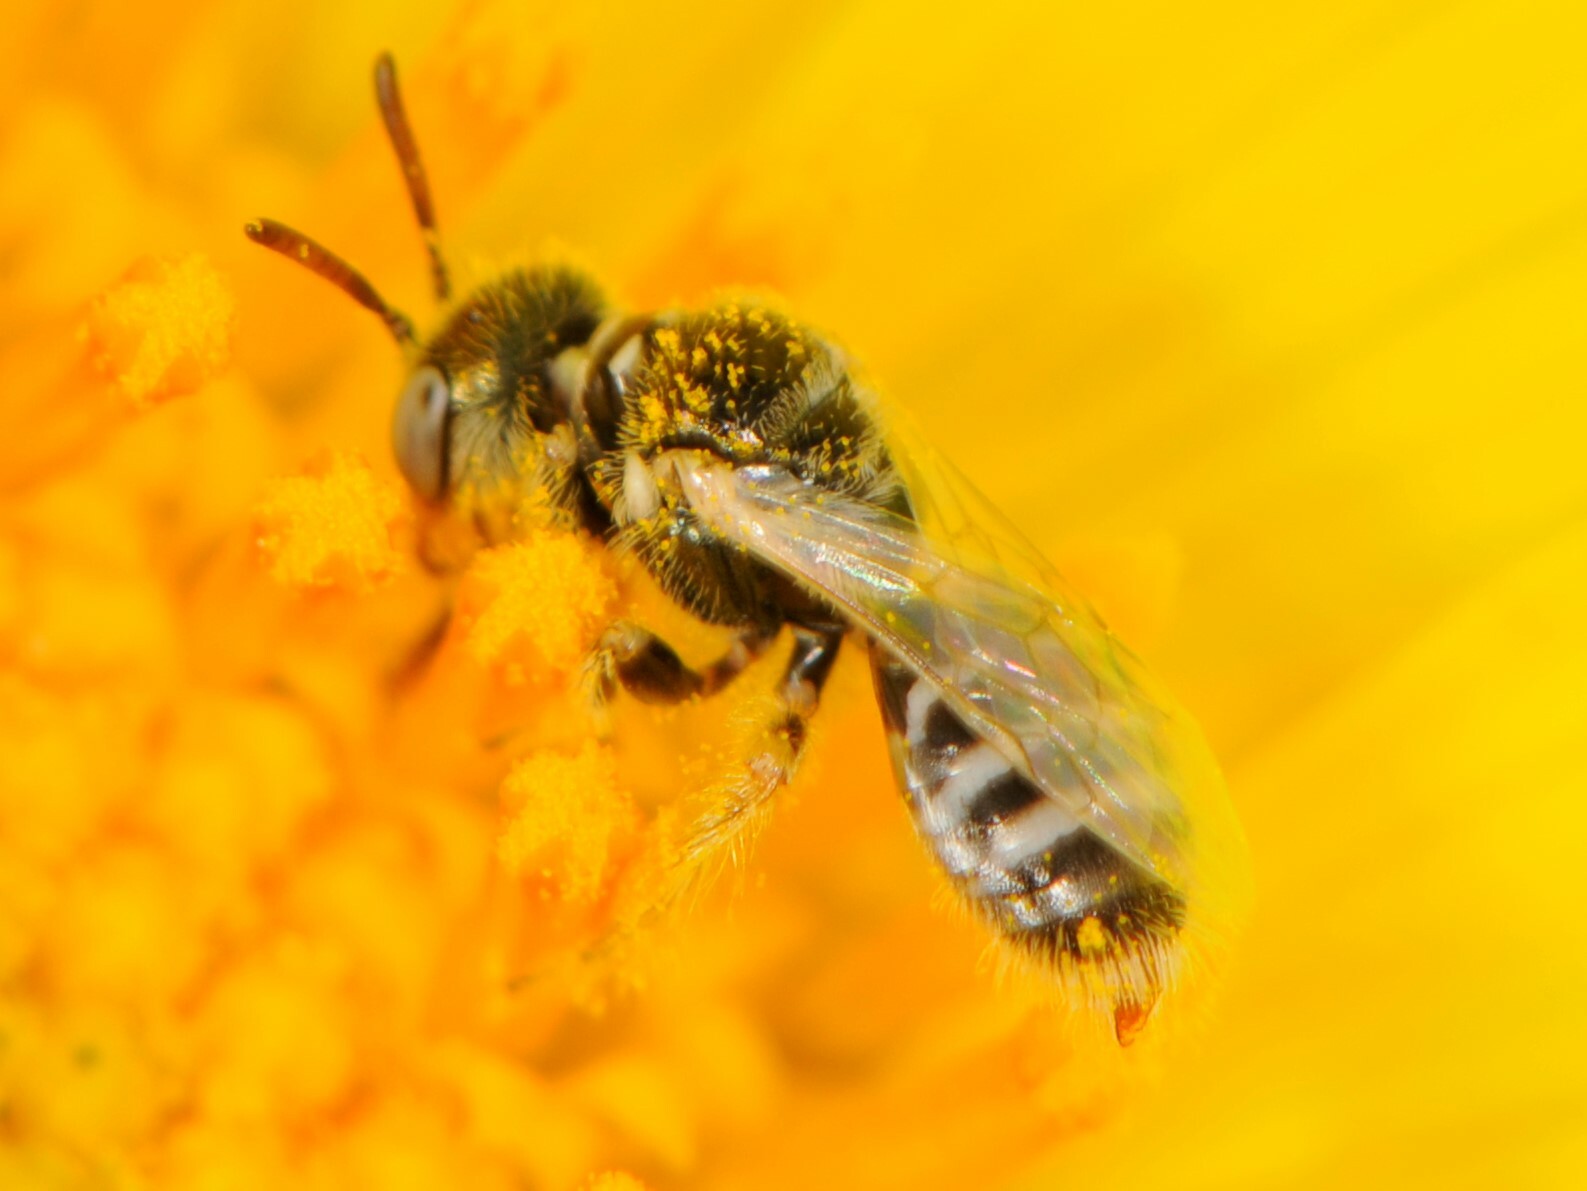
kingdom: Animalia
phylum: Arthropoda
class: Insecta
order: Hymenoptera
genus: Pentaperdita
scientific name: Pentaperdita
